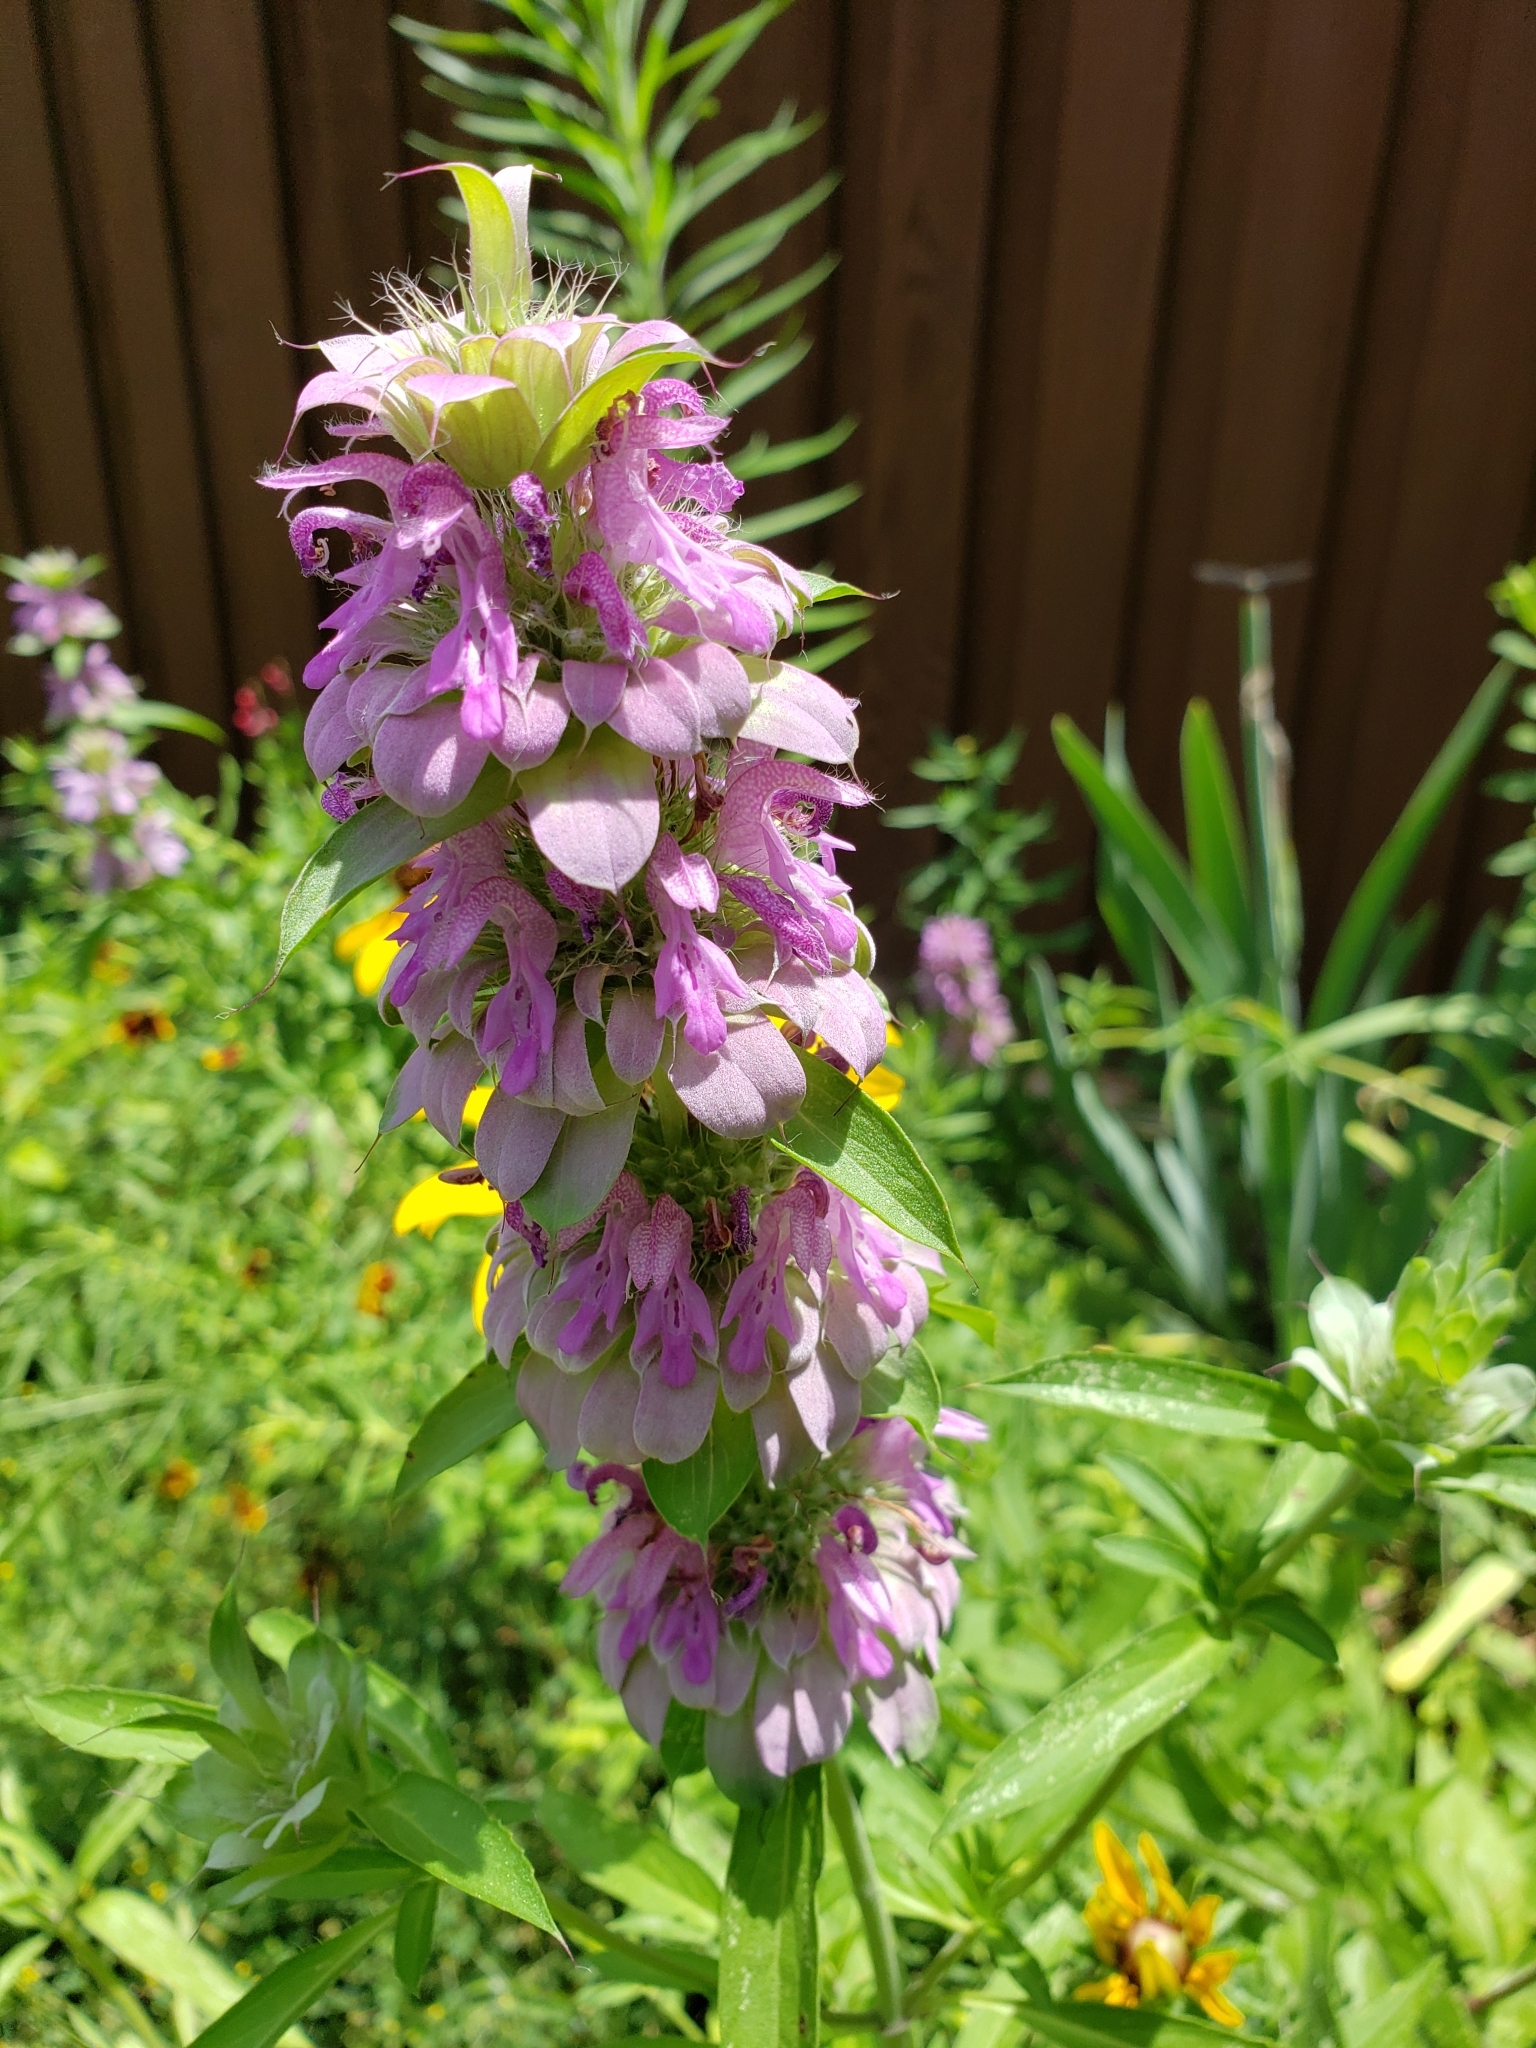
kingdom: Plantae
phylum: Tracheophyta
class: Magnoliopsida
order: Lamiales
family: Lamiaceae
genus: Monarda
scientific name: Monarda citriodora
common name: Lemon beebalm
